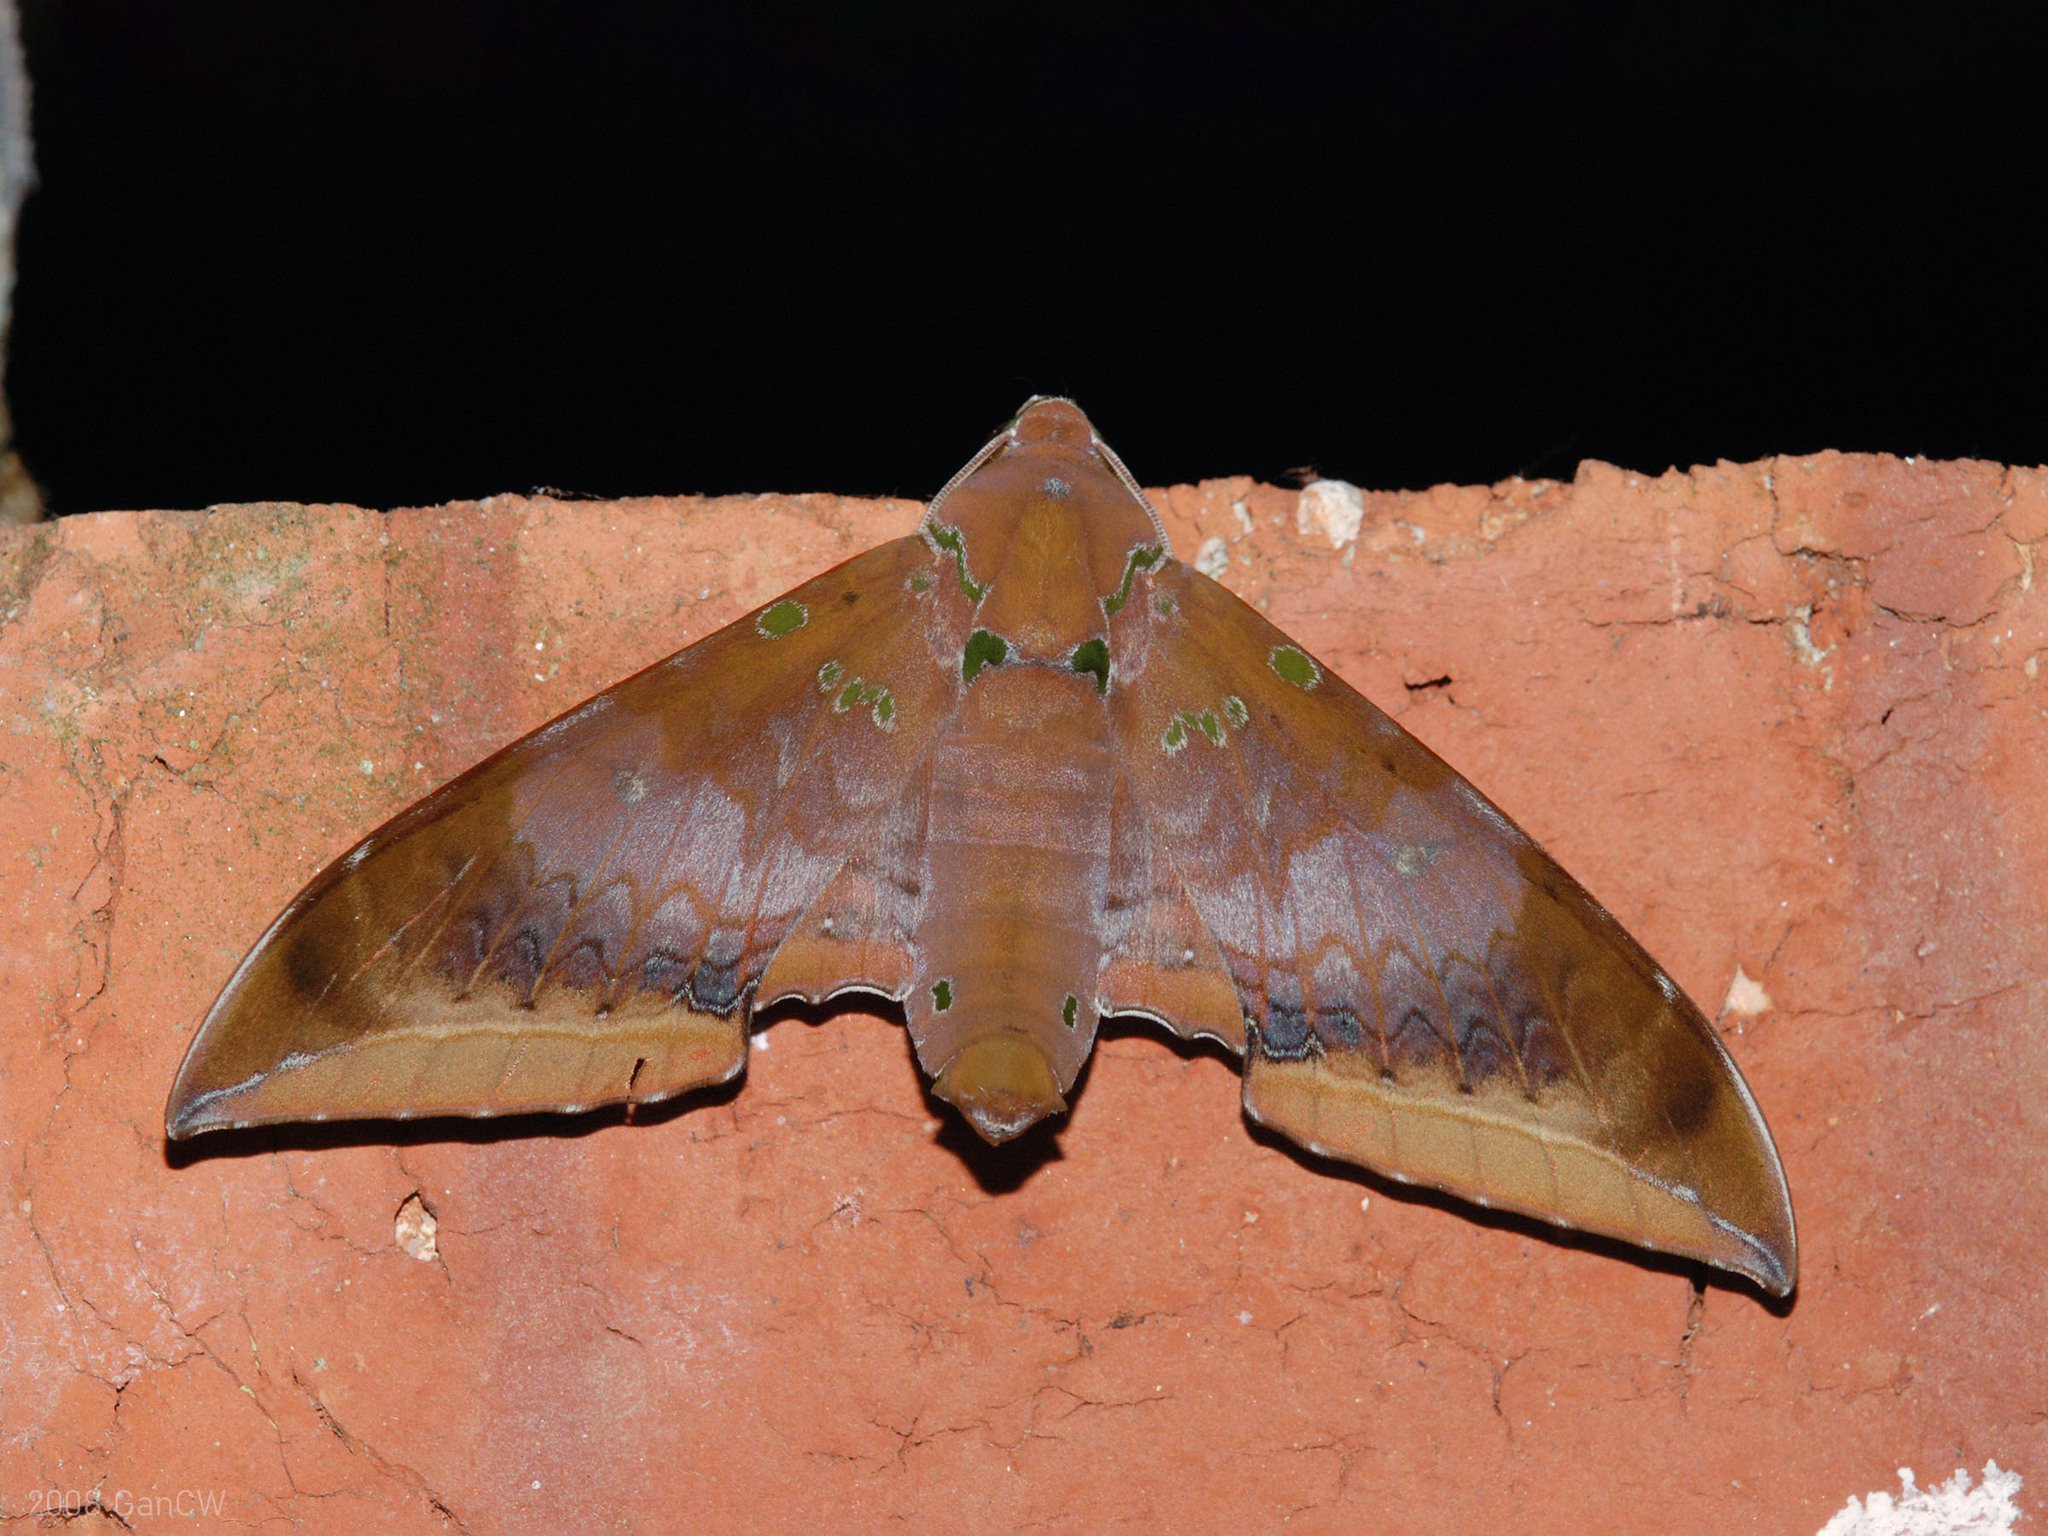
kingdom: Animalia
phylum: Arthropoda
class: Insecta
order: Lepidoptera
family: Sphingidae
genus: Ambulyx
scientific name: Ambulyx moorei
